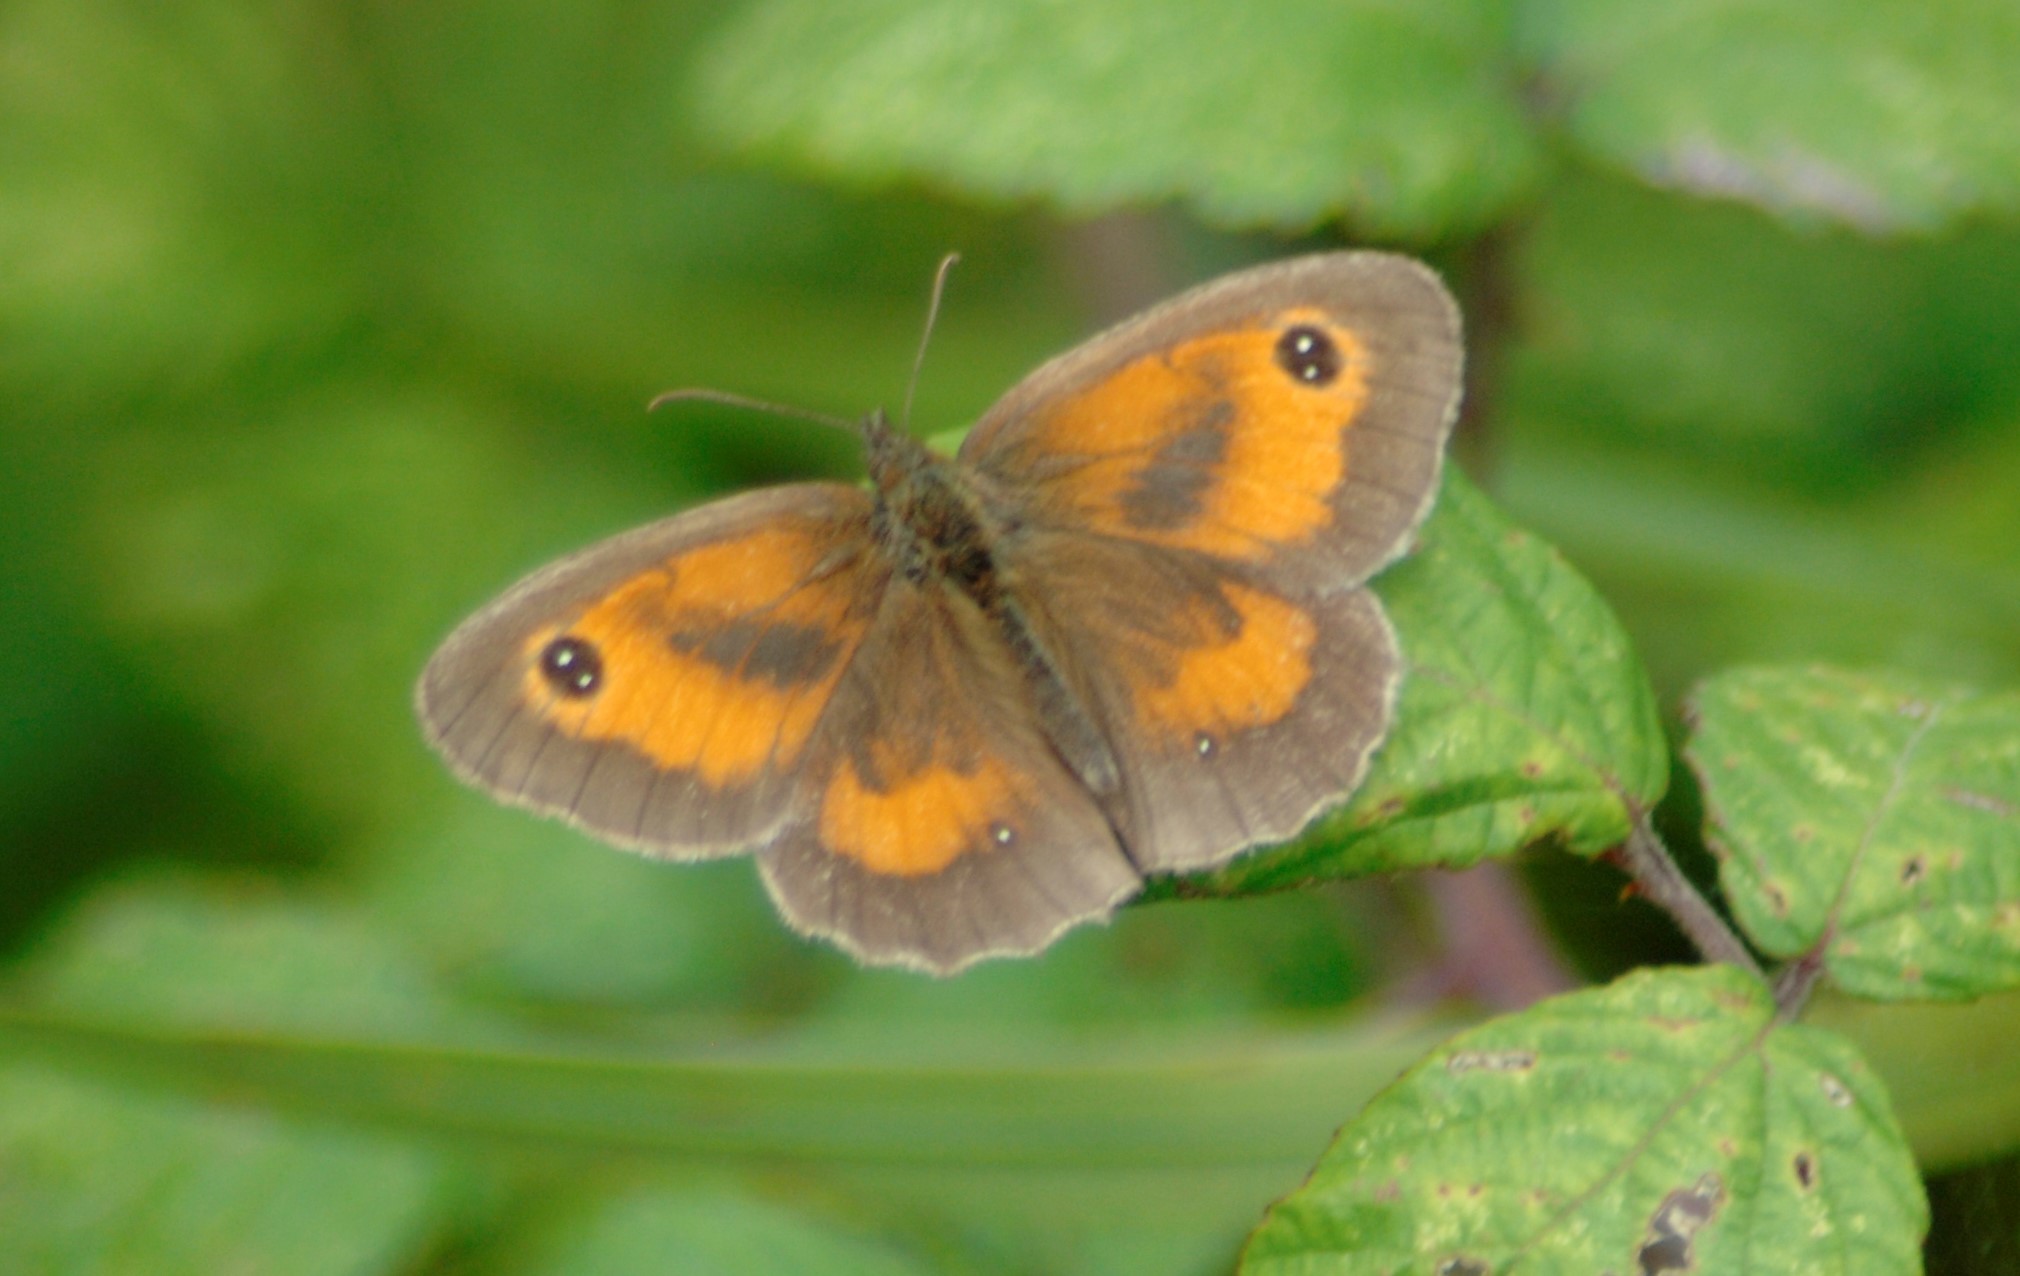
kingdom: Animalia
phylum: Arthropoda
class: Insecta
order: Lepidoptera
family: Nymphalidae
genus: Pyronia
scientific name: Pyronia tithonus
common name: Gatekeeper
